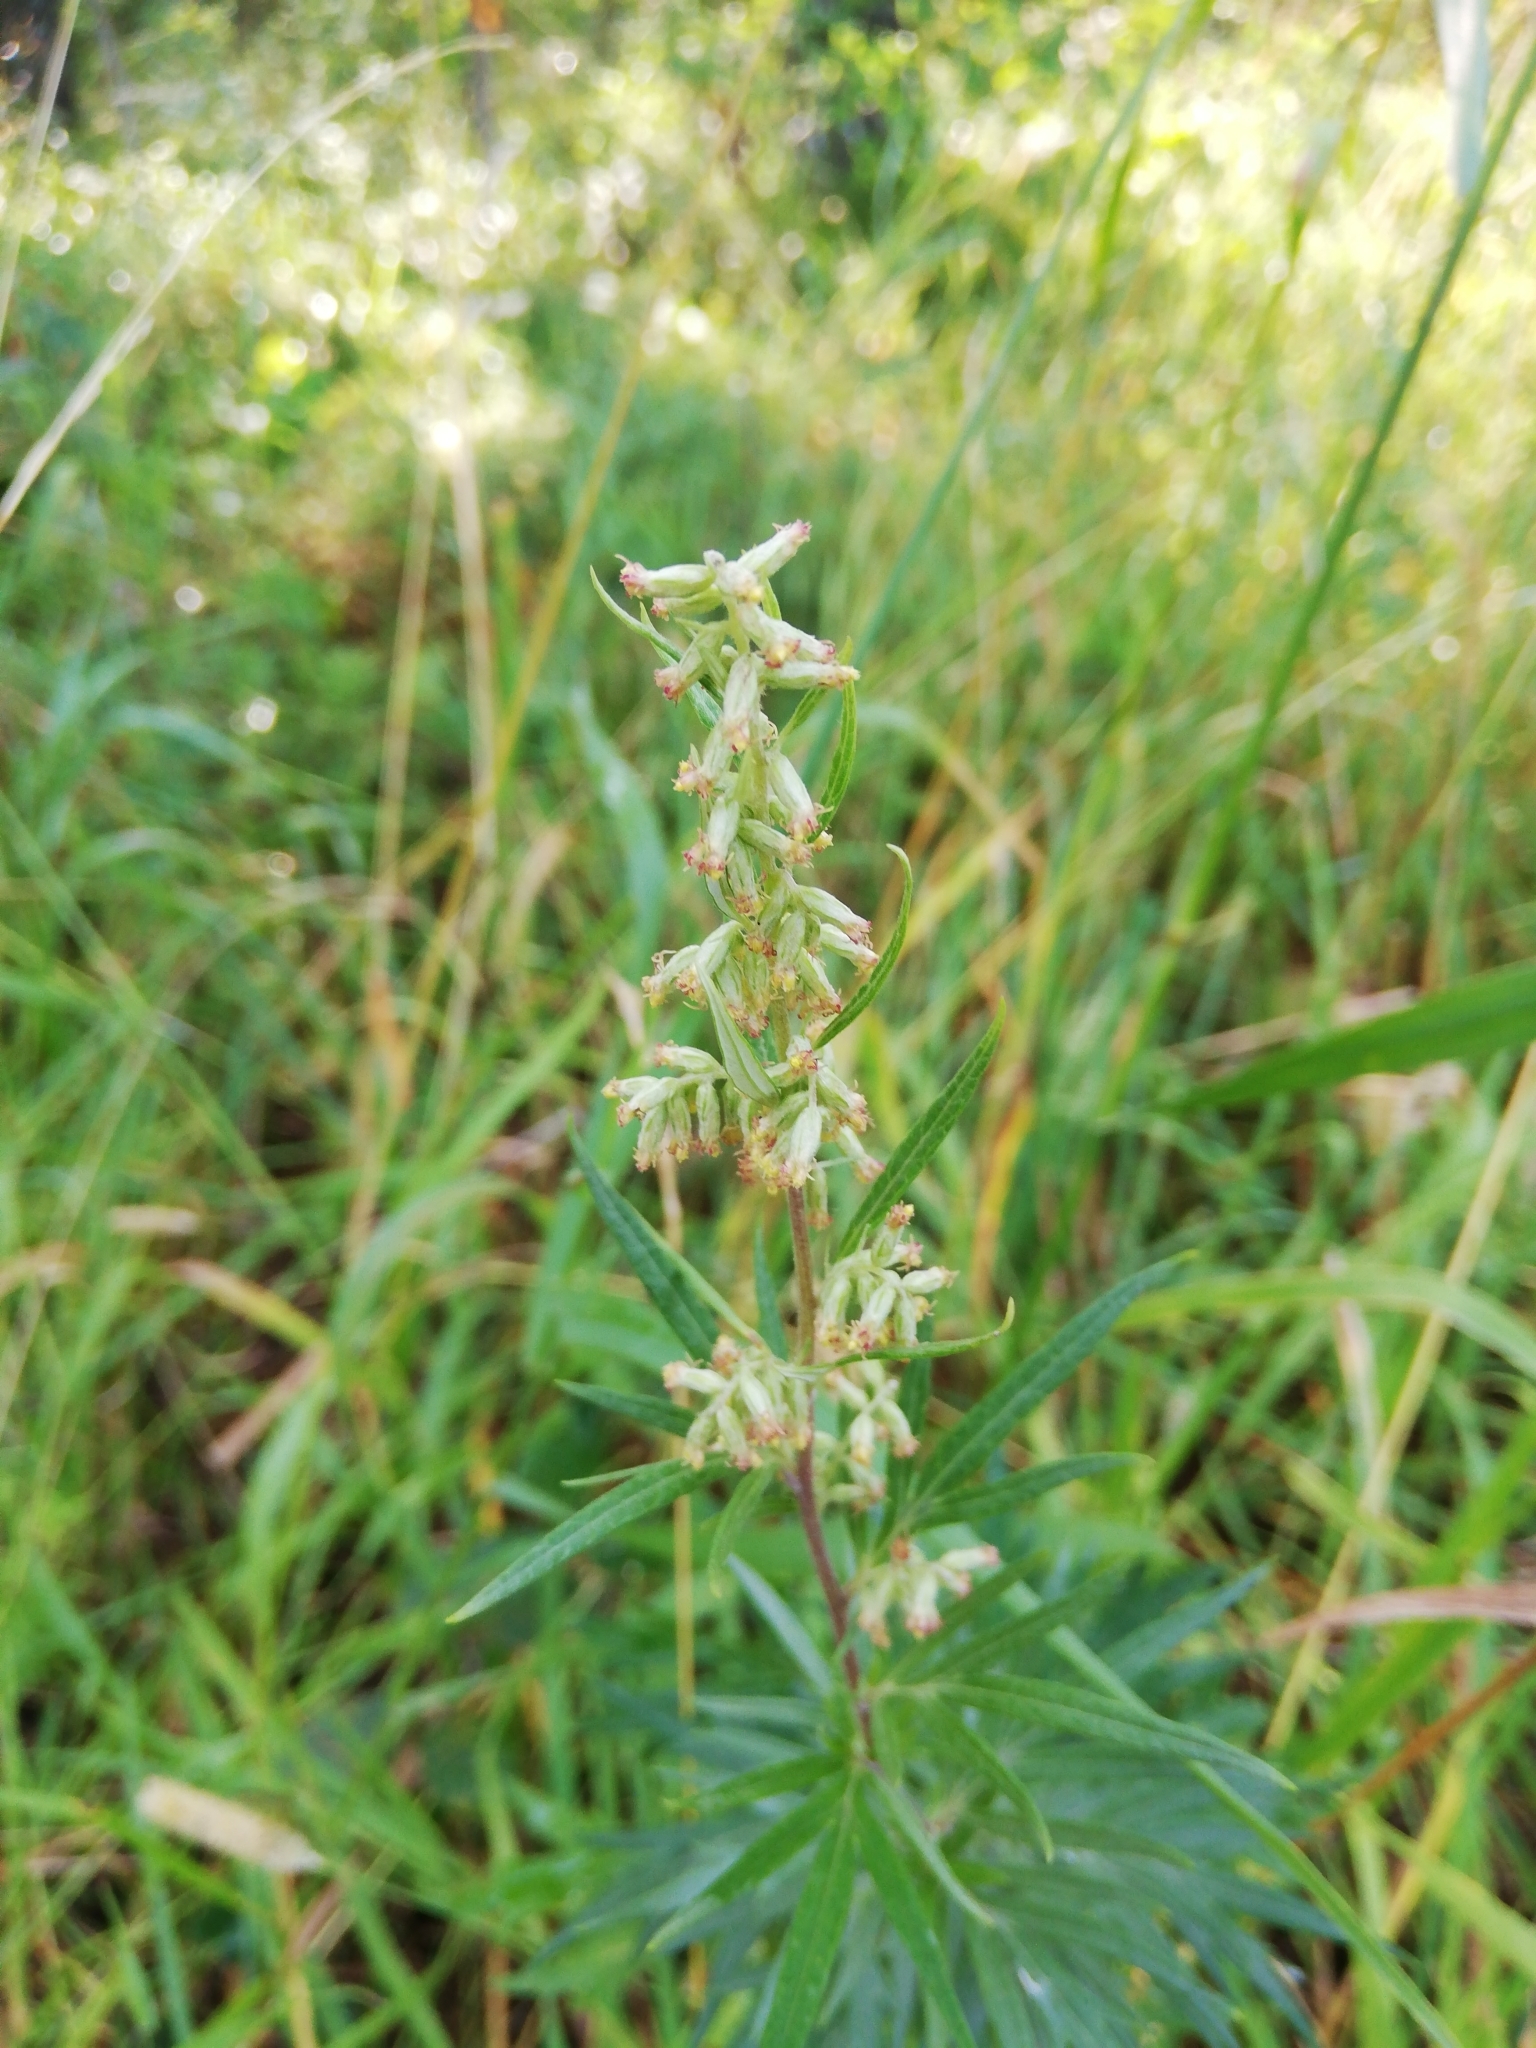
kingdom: Plantae
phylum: Tracheophyta
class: Magnoliopsida
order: Asterales
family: Asteraceae
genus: Artemisia
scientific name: Artemisia vulgaris
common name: Mugwort
